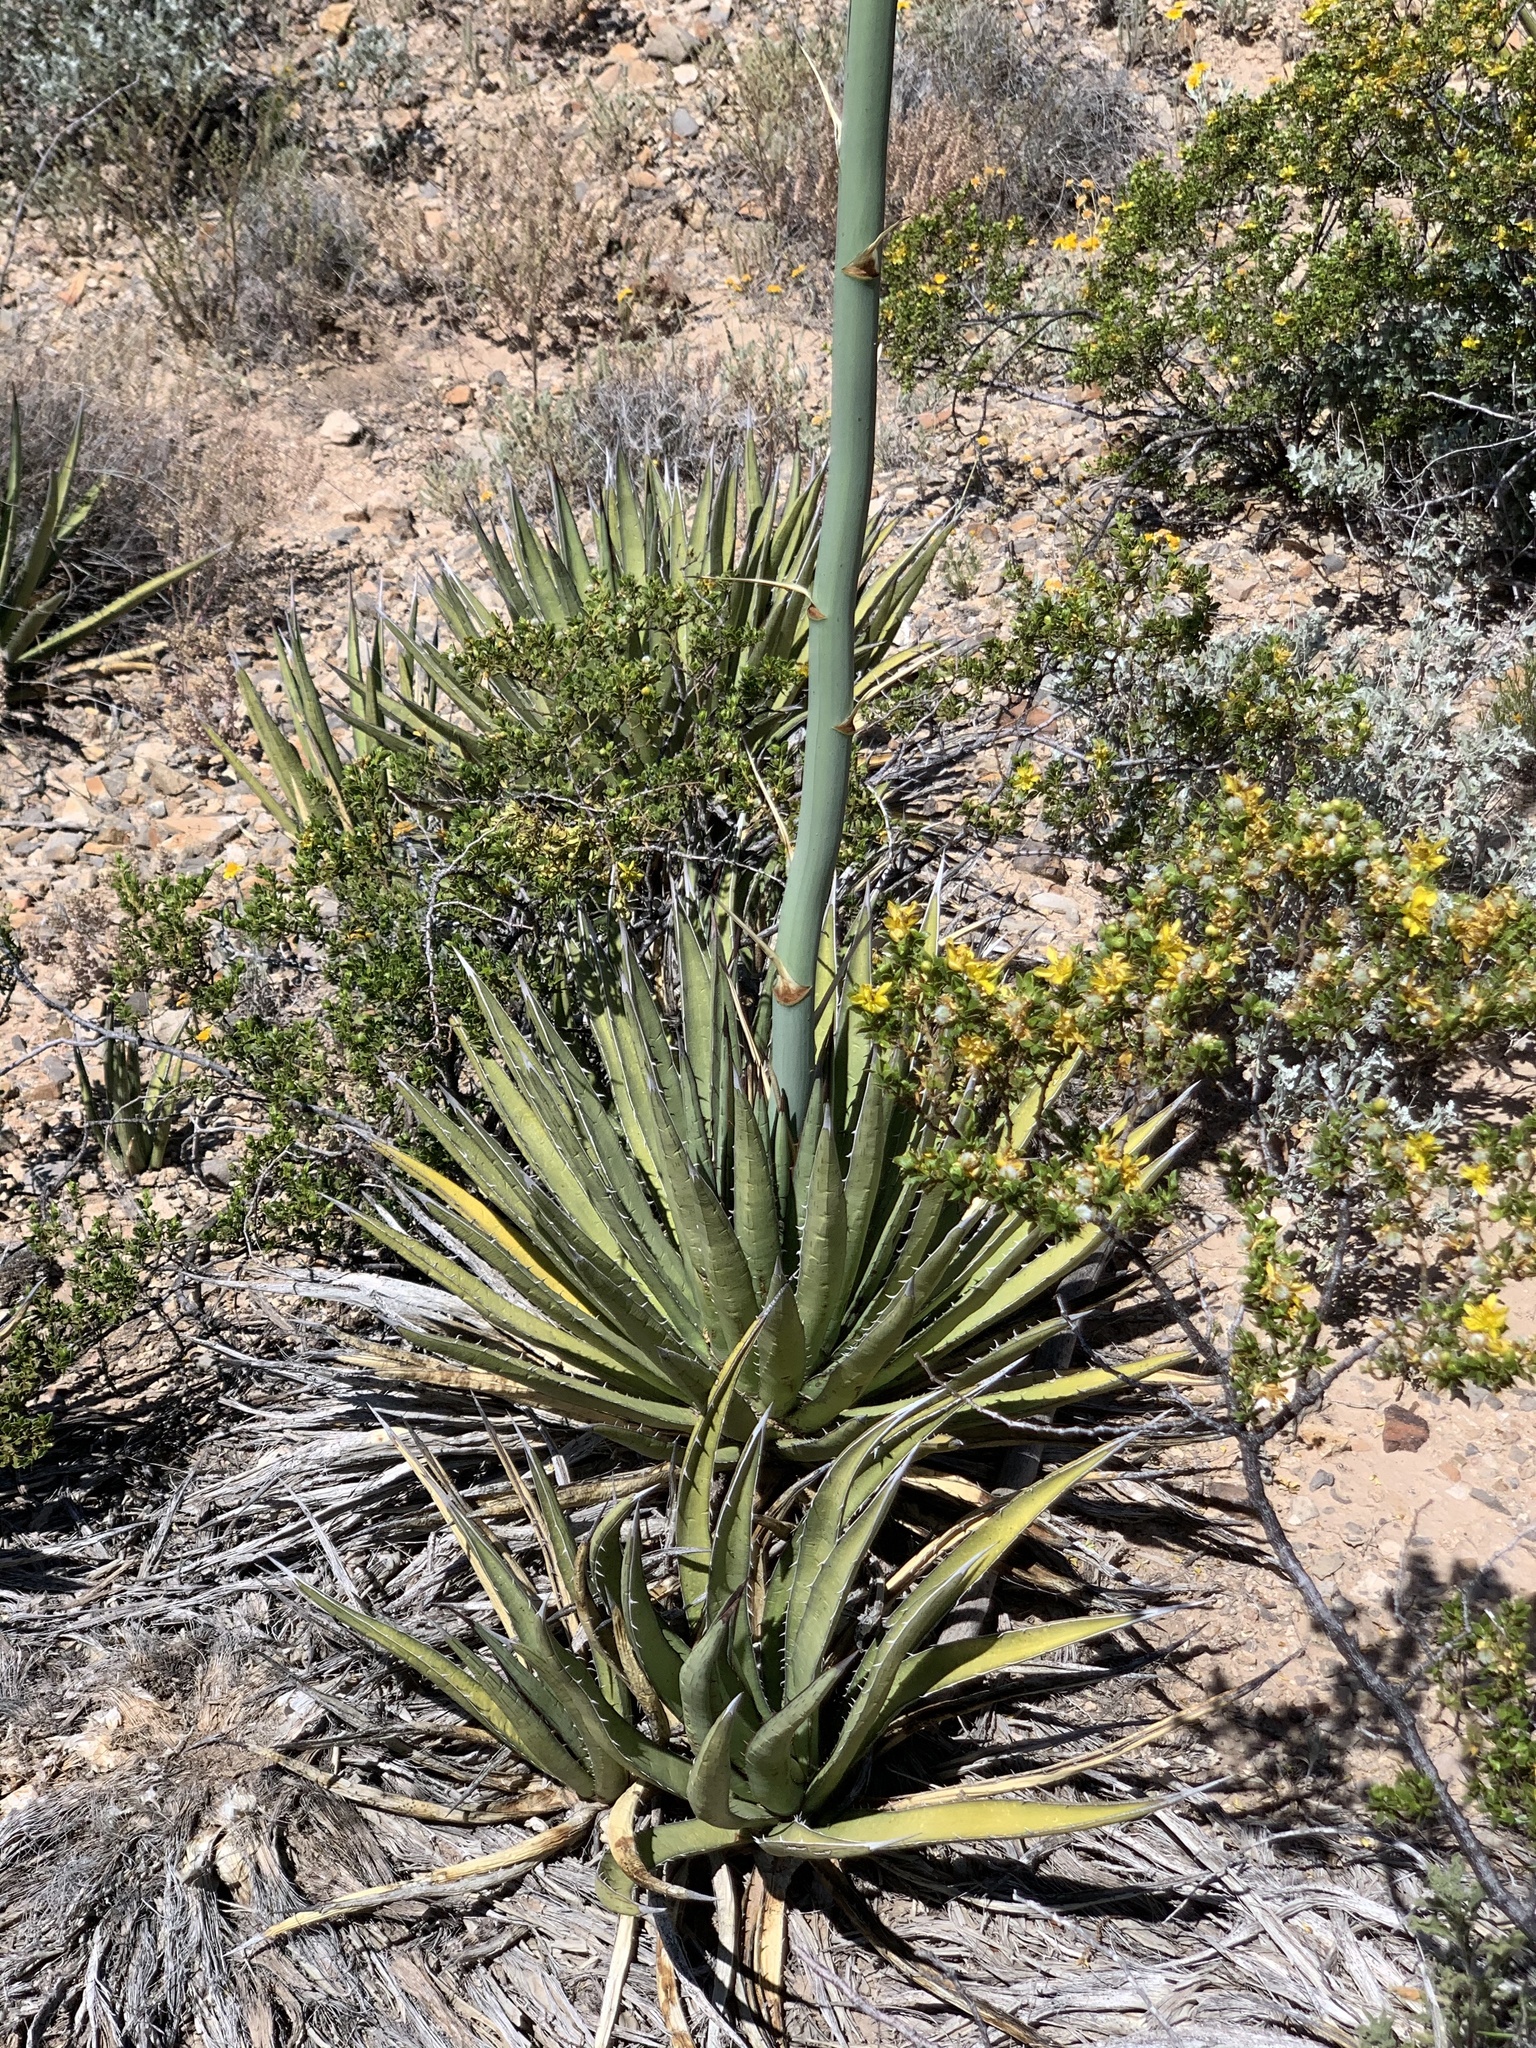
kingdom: Plantae
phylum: Tracheophyta
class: Liliopsida
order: Asparagales
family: Asparagaceae
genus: Agave
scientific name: Agave lechuguilla
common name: Lecheguilla agave
